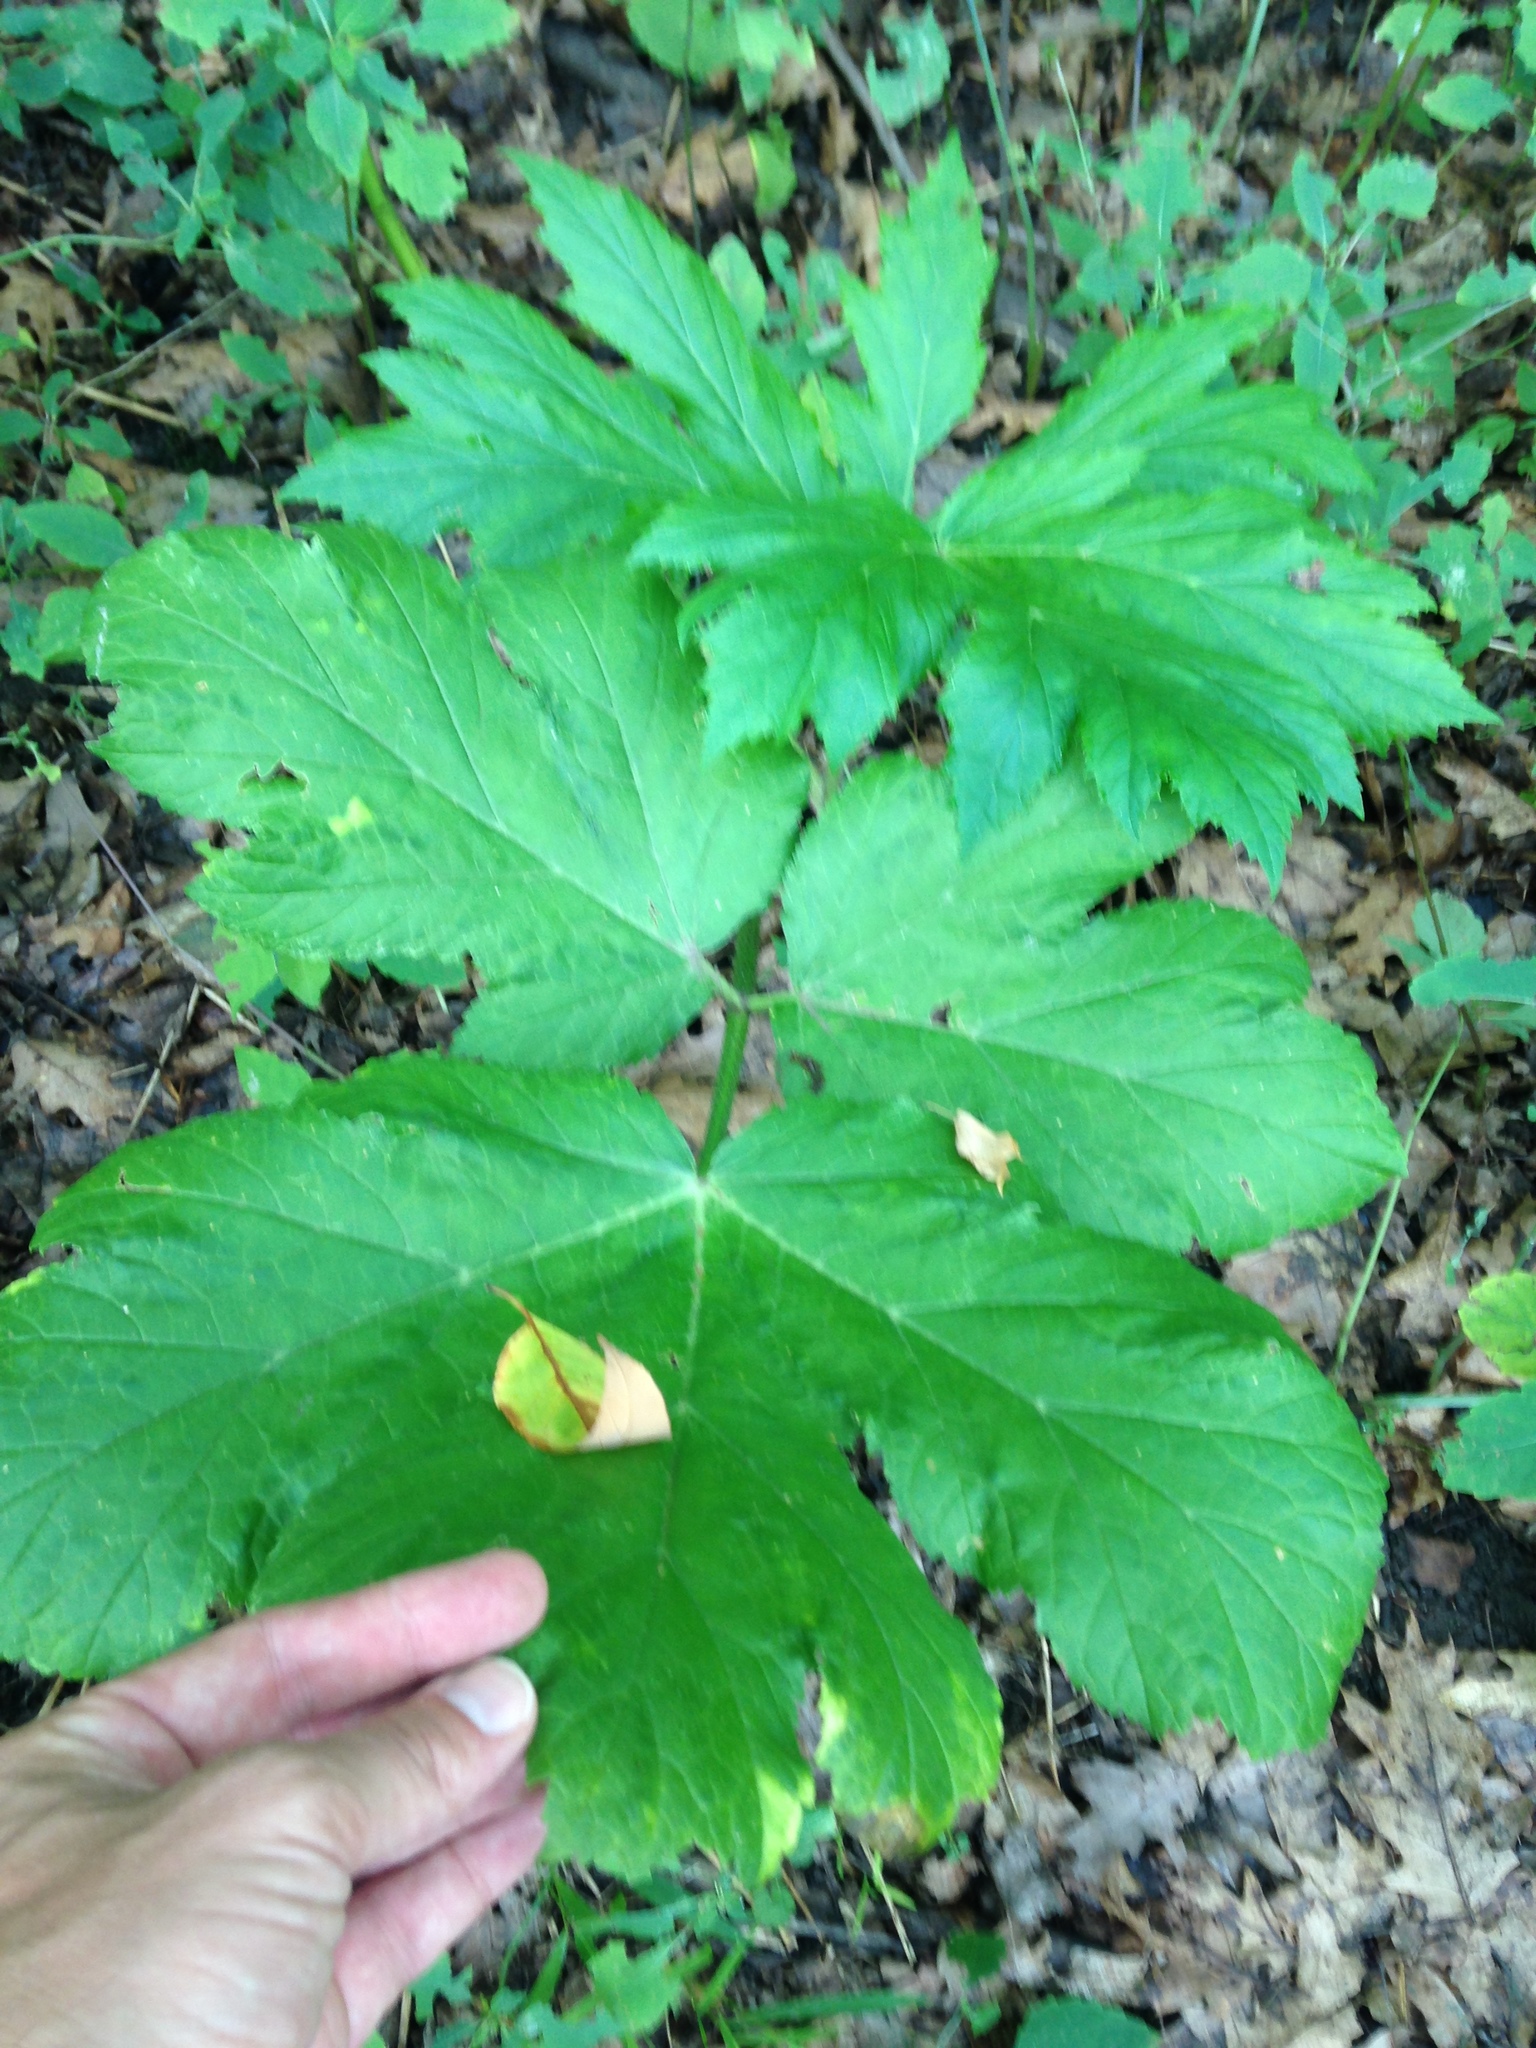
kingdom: Plantae
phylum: Tracheophyta
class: Magnoliopsida
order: Apiales
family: Apiaceae
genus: Heracleum
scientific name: Heracleum maximum
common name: American cow parsnip
